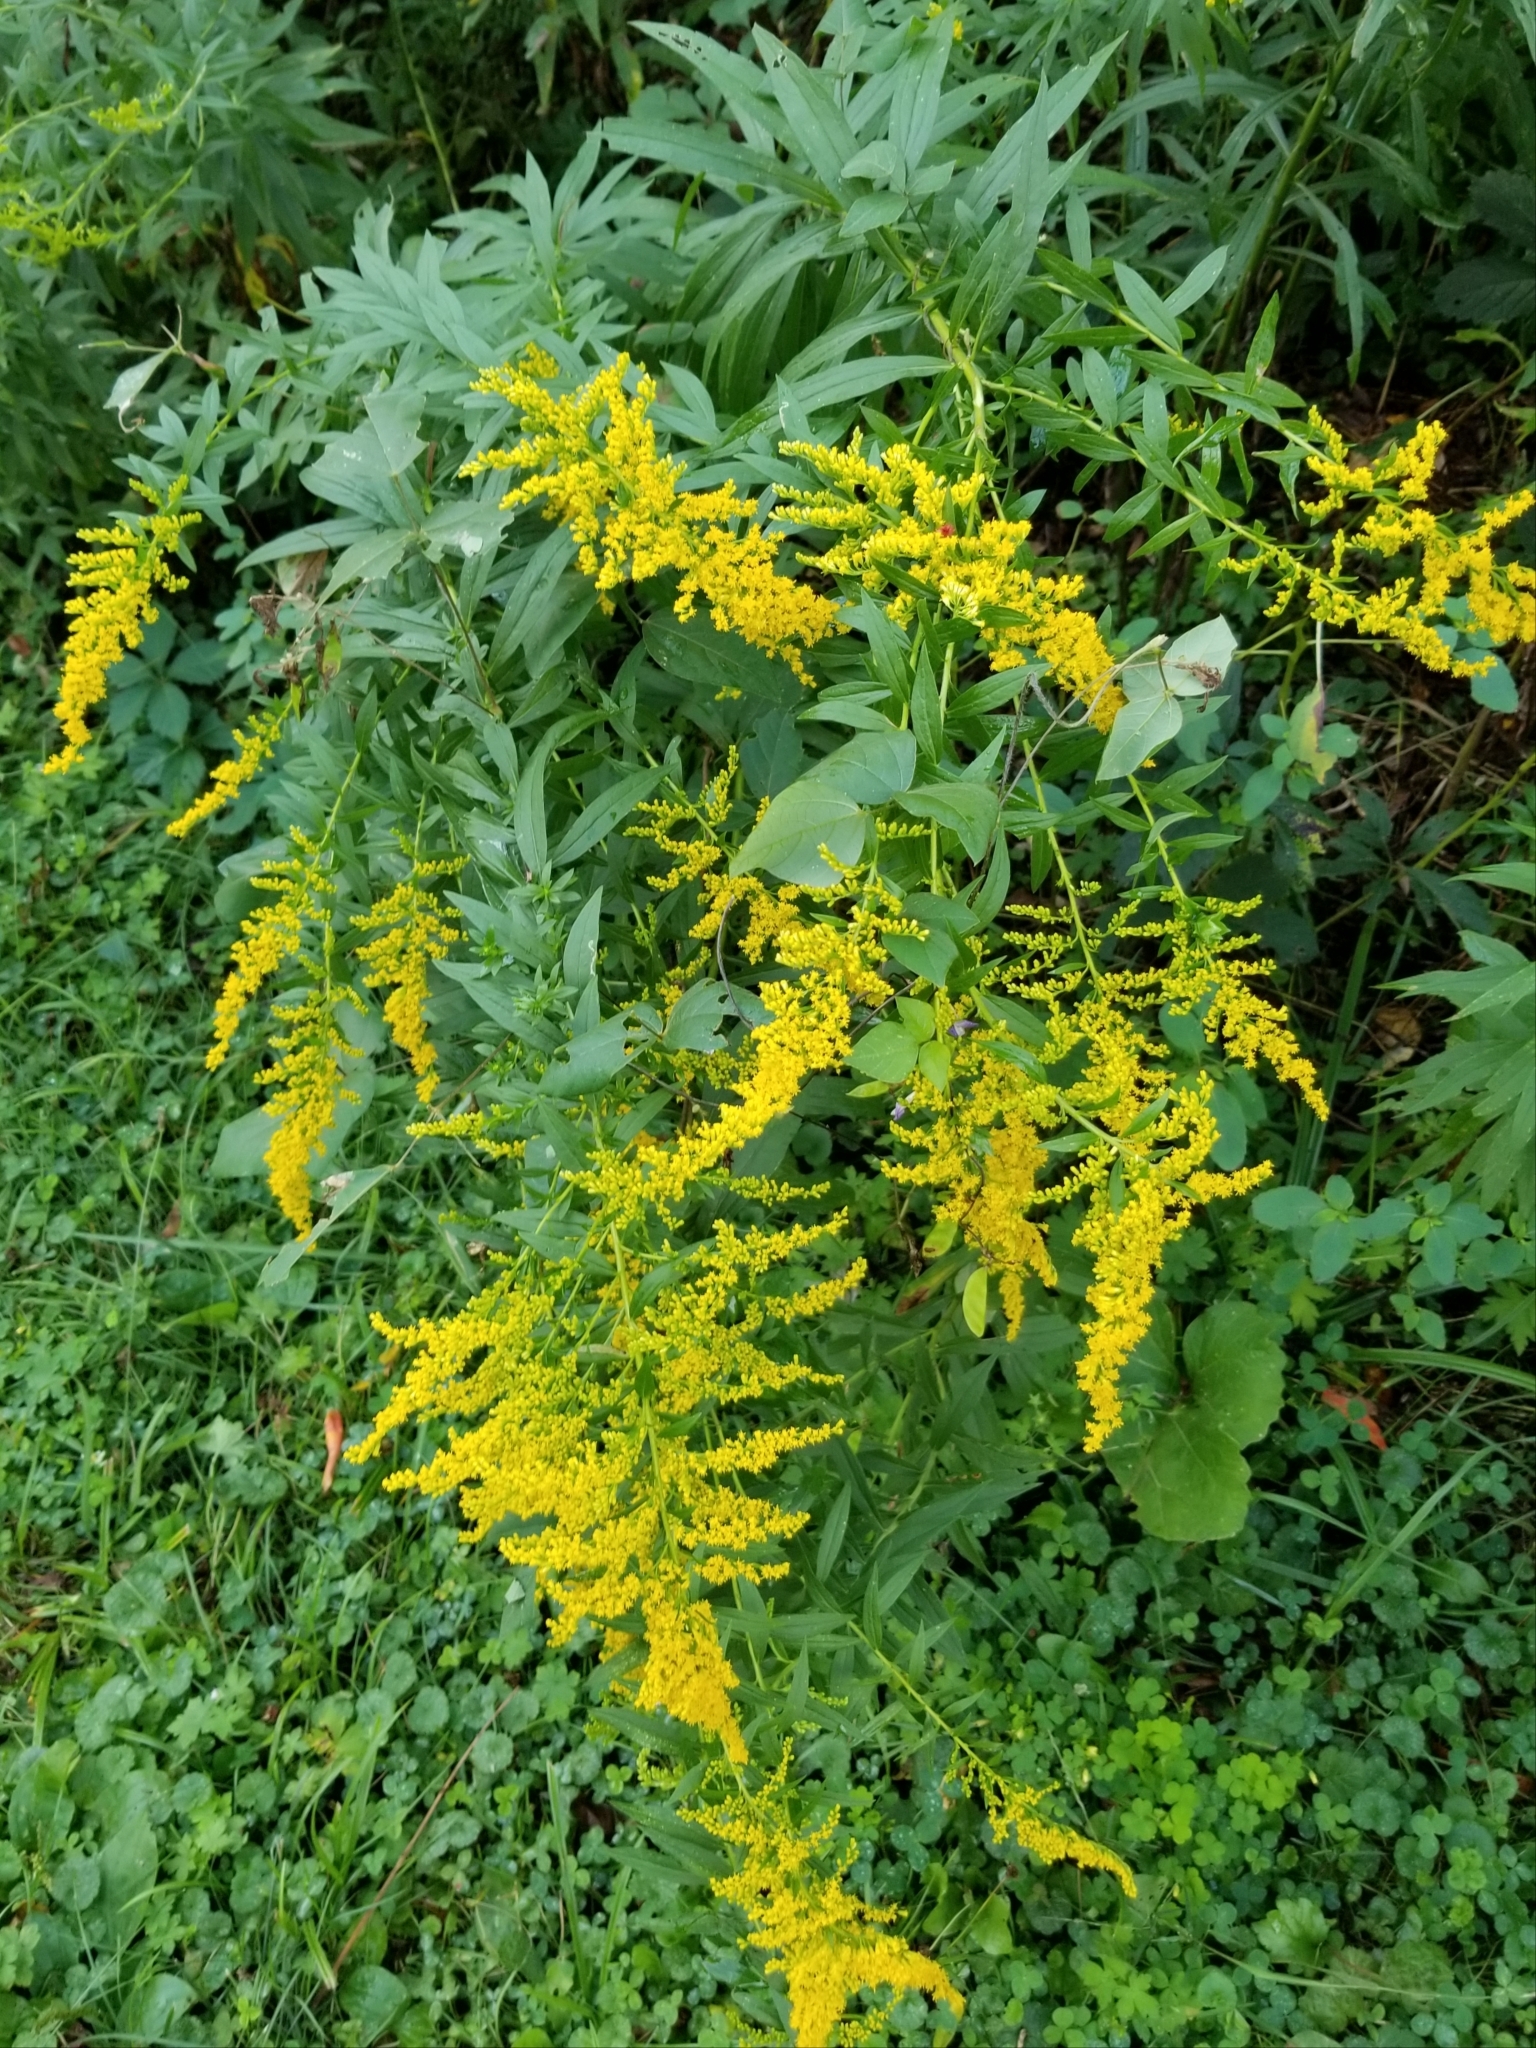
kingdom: Plantae
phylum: Tracheophyta
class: Magnoliopsida
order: Asterales
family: Asteraceae
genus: Solidago
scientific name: Solidago canadensis
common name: Canada goldenrod
